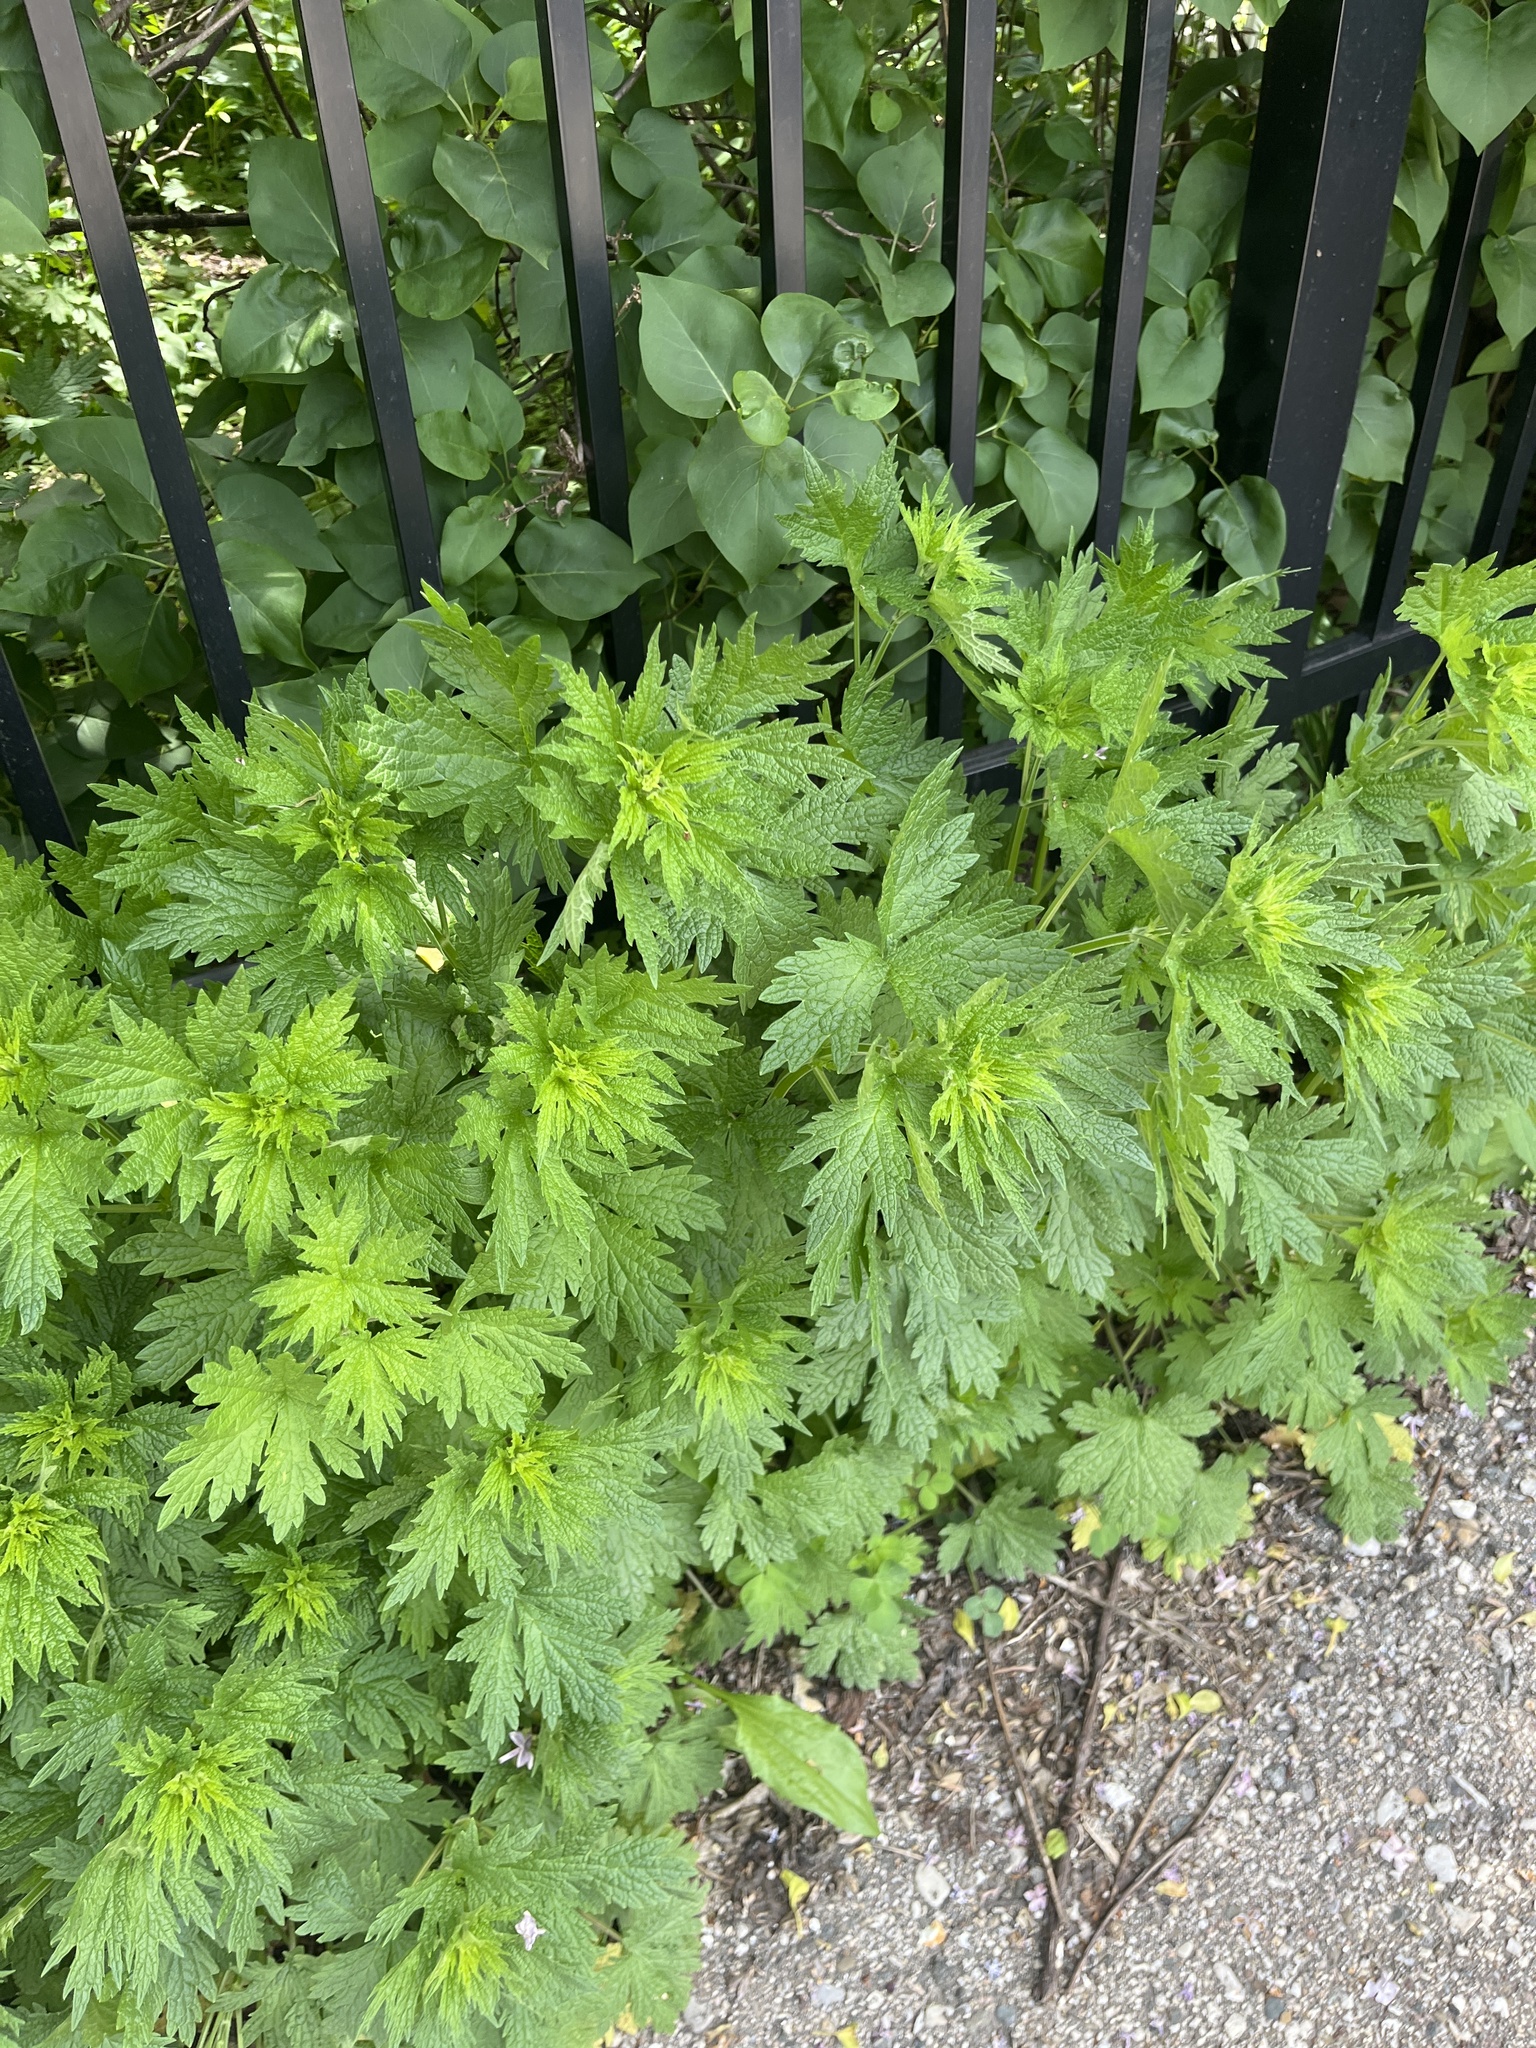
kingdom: Plantae
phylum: Tracheophyta
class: Magnoliopsida
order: Lamiales
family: Lamiaceae
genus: Leonurus
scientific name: Leonurus cardiaca
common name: Motherwort
